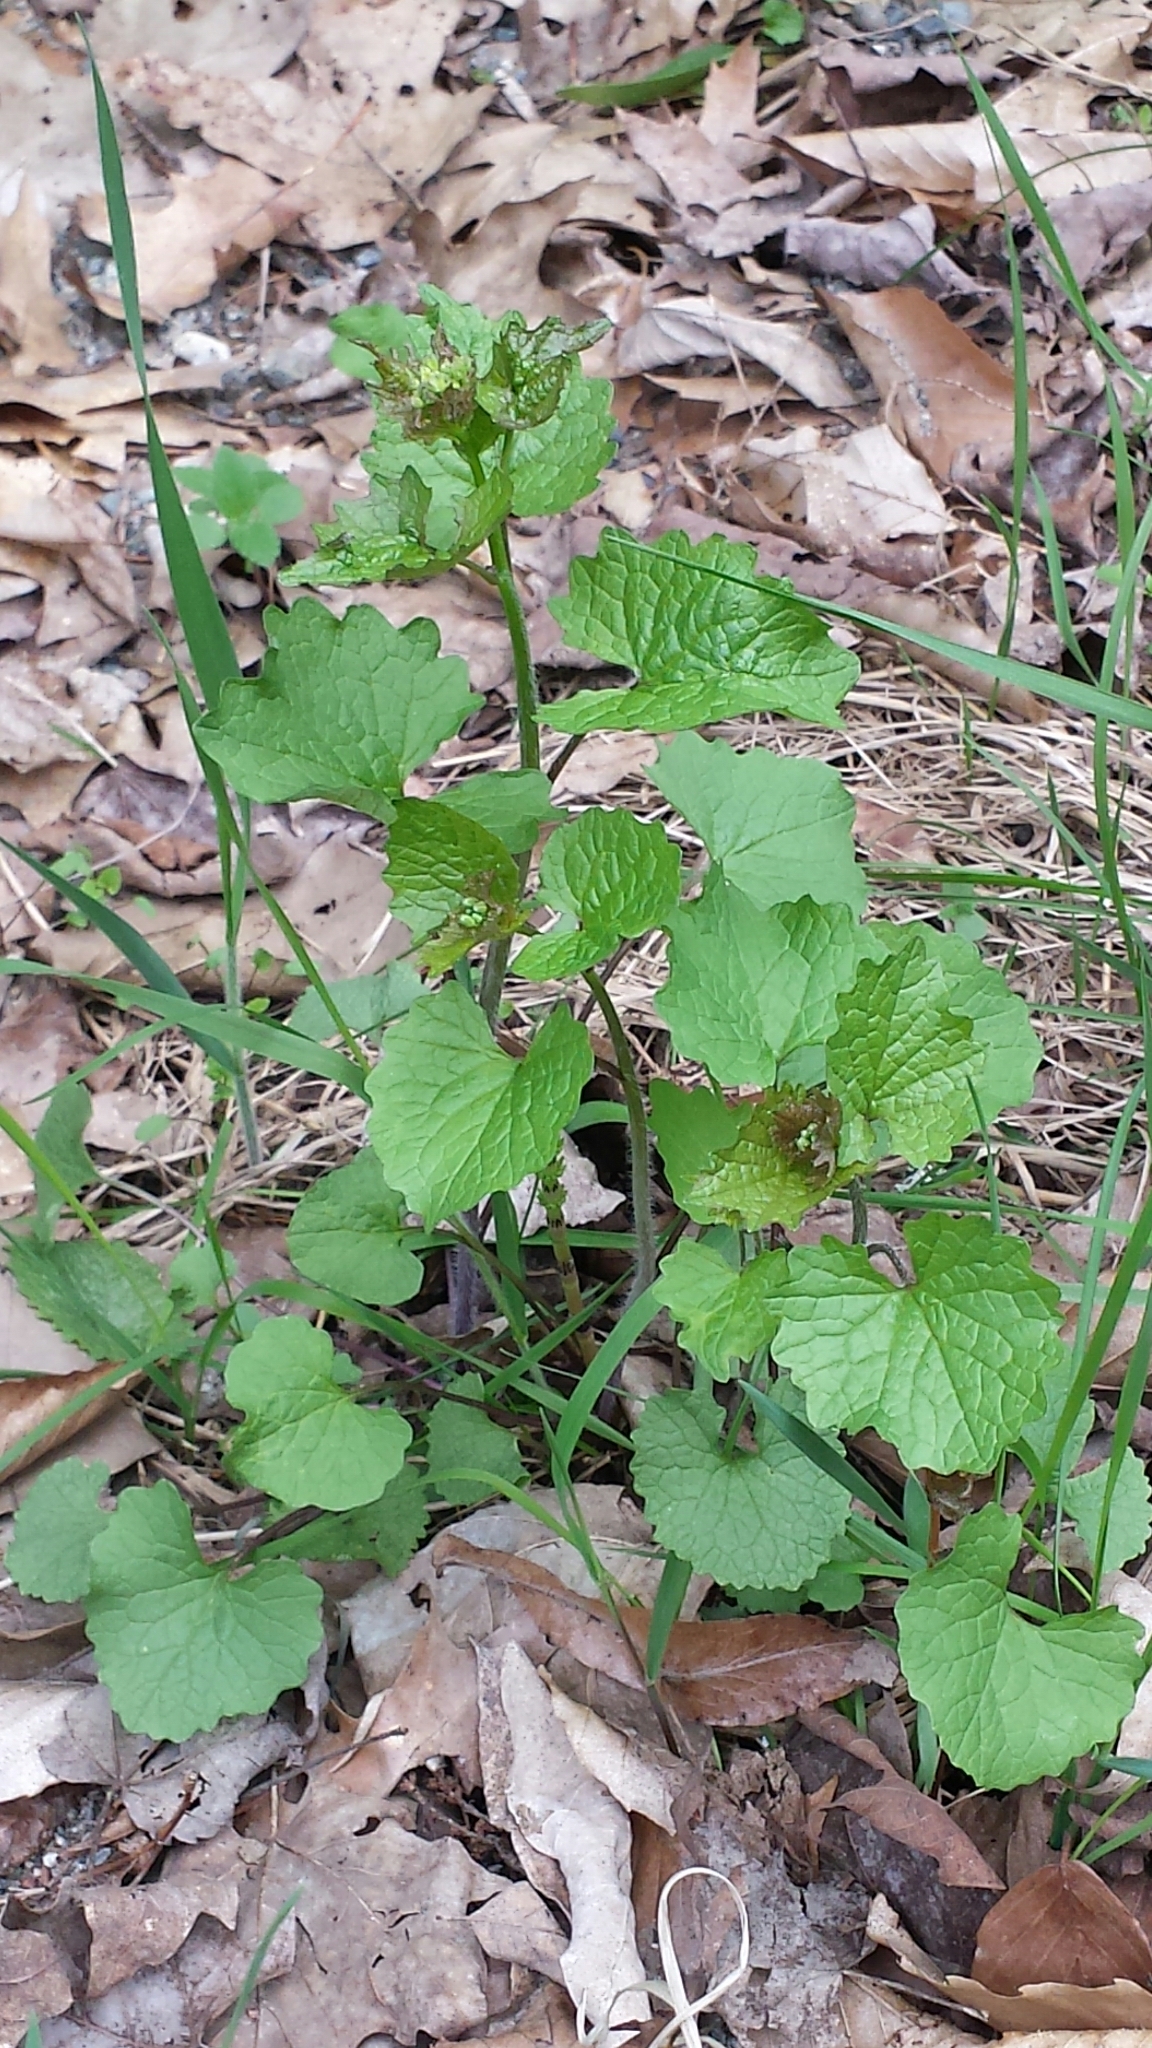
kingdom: Plantae
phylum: Tracheophyta
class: Magnoliopsida
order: Brassicales
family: Brassicaceae
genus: Alliaria
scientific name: Alliaria petiolata
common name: Garlic mustard
